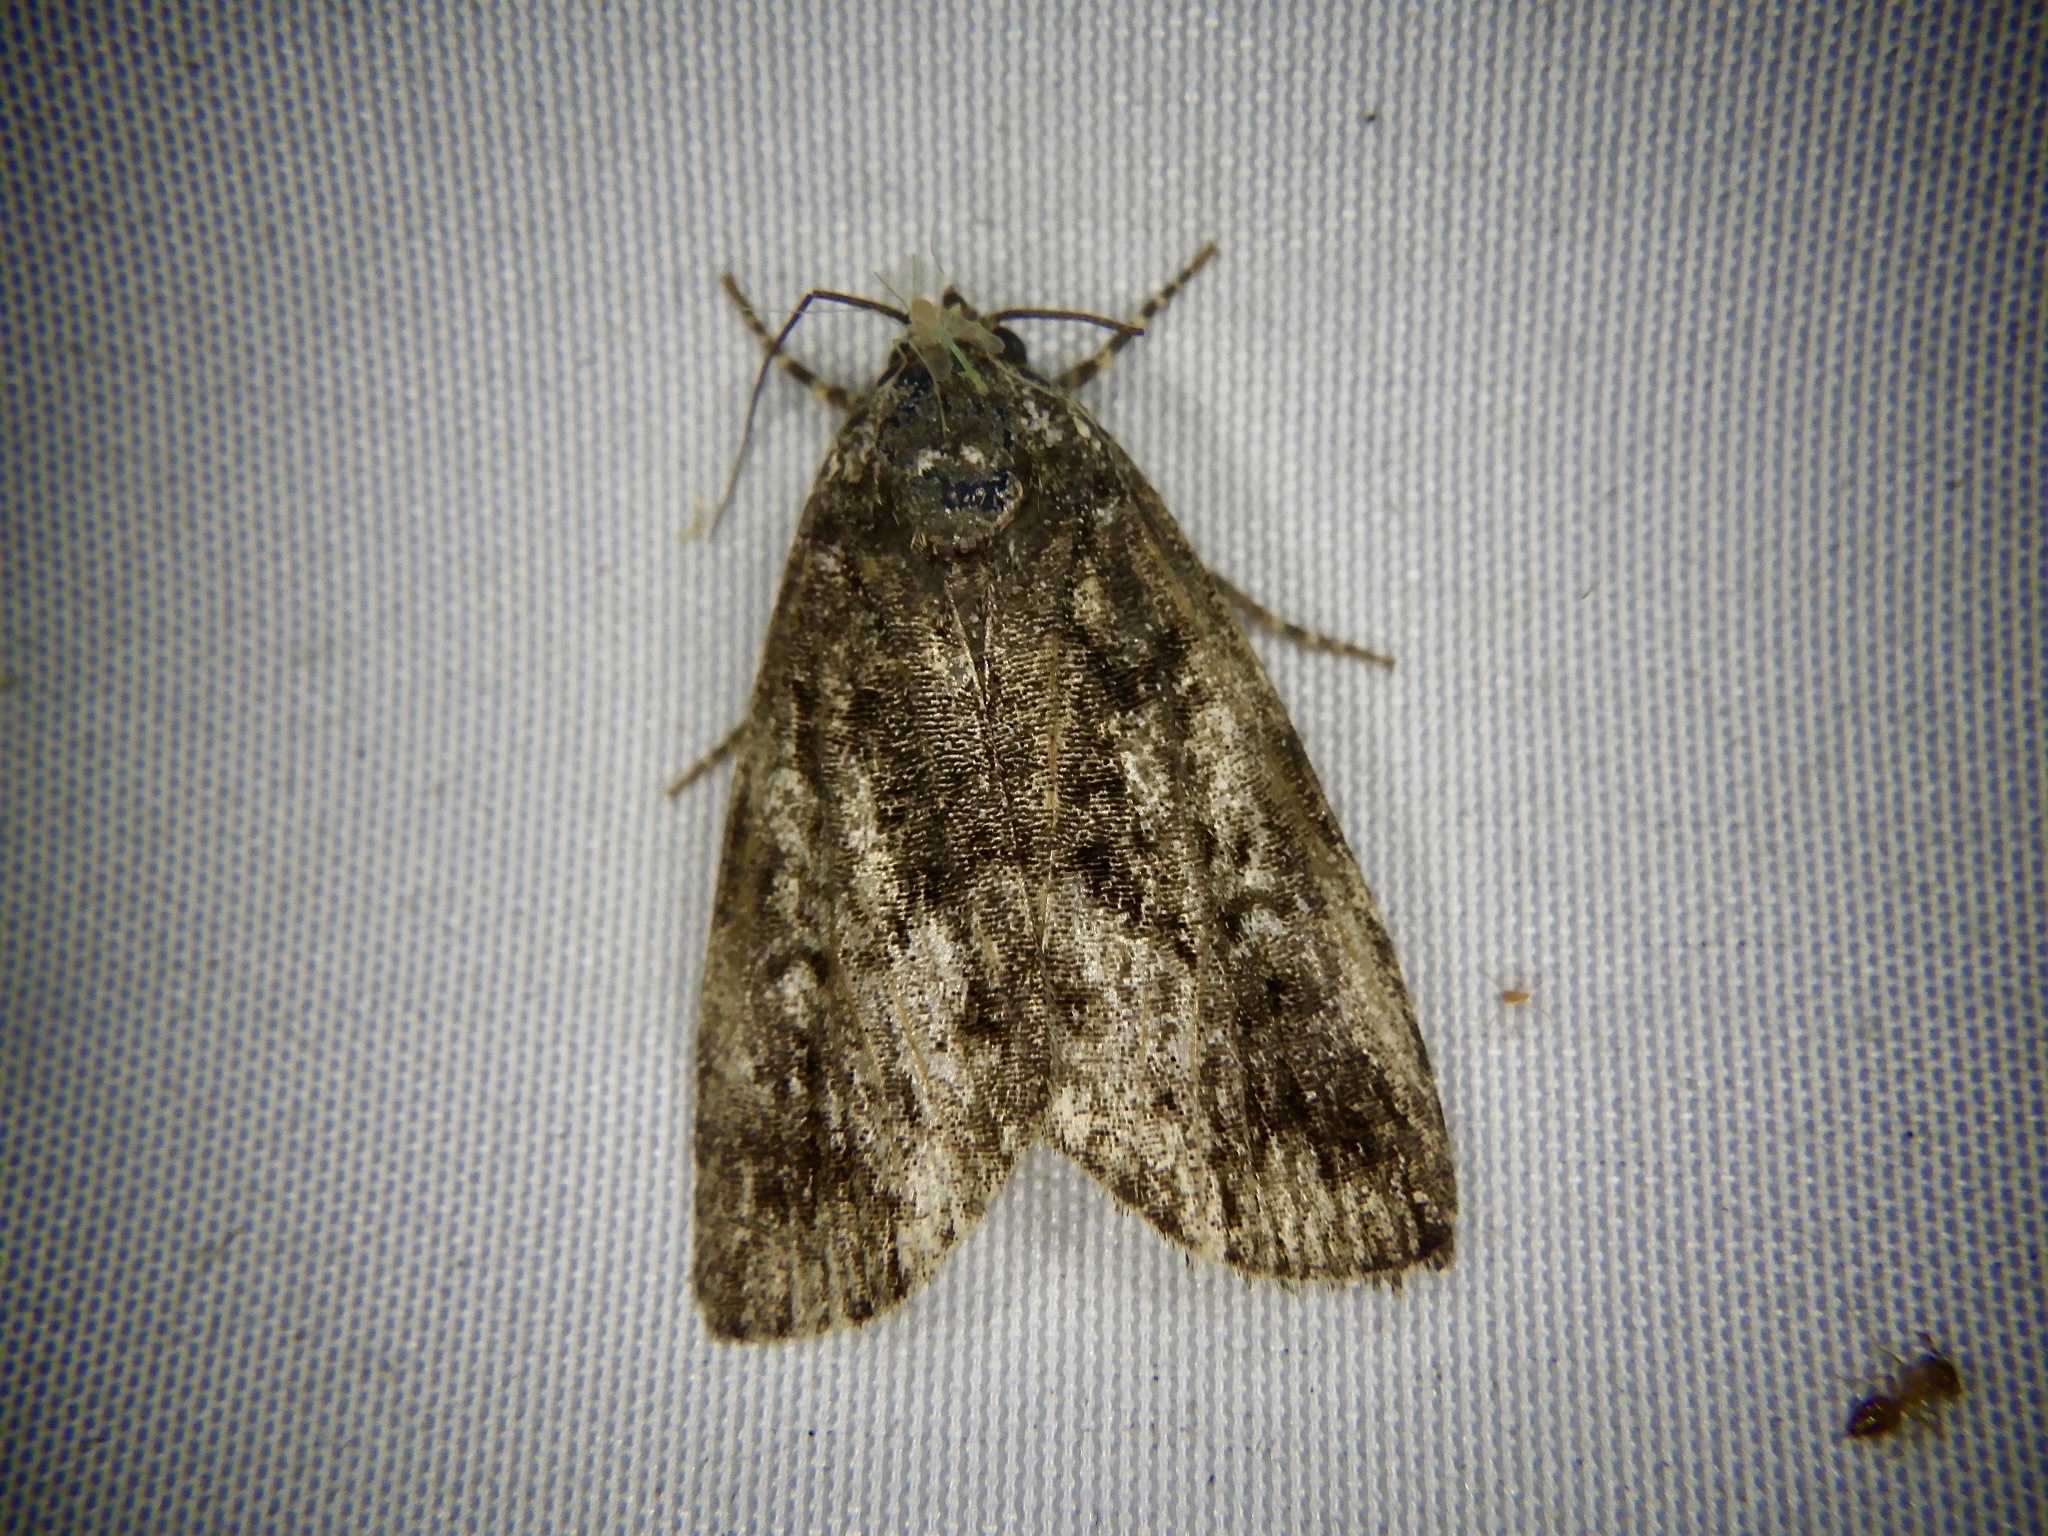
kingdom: Animalia
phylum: Arthropoda
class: Insecta
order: Lepidoptera
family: Noctuidae
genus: Gerbathodes
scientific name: Gerbathodes lichenodes
